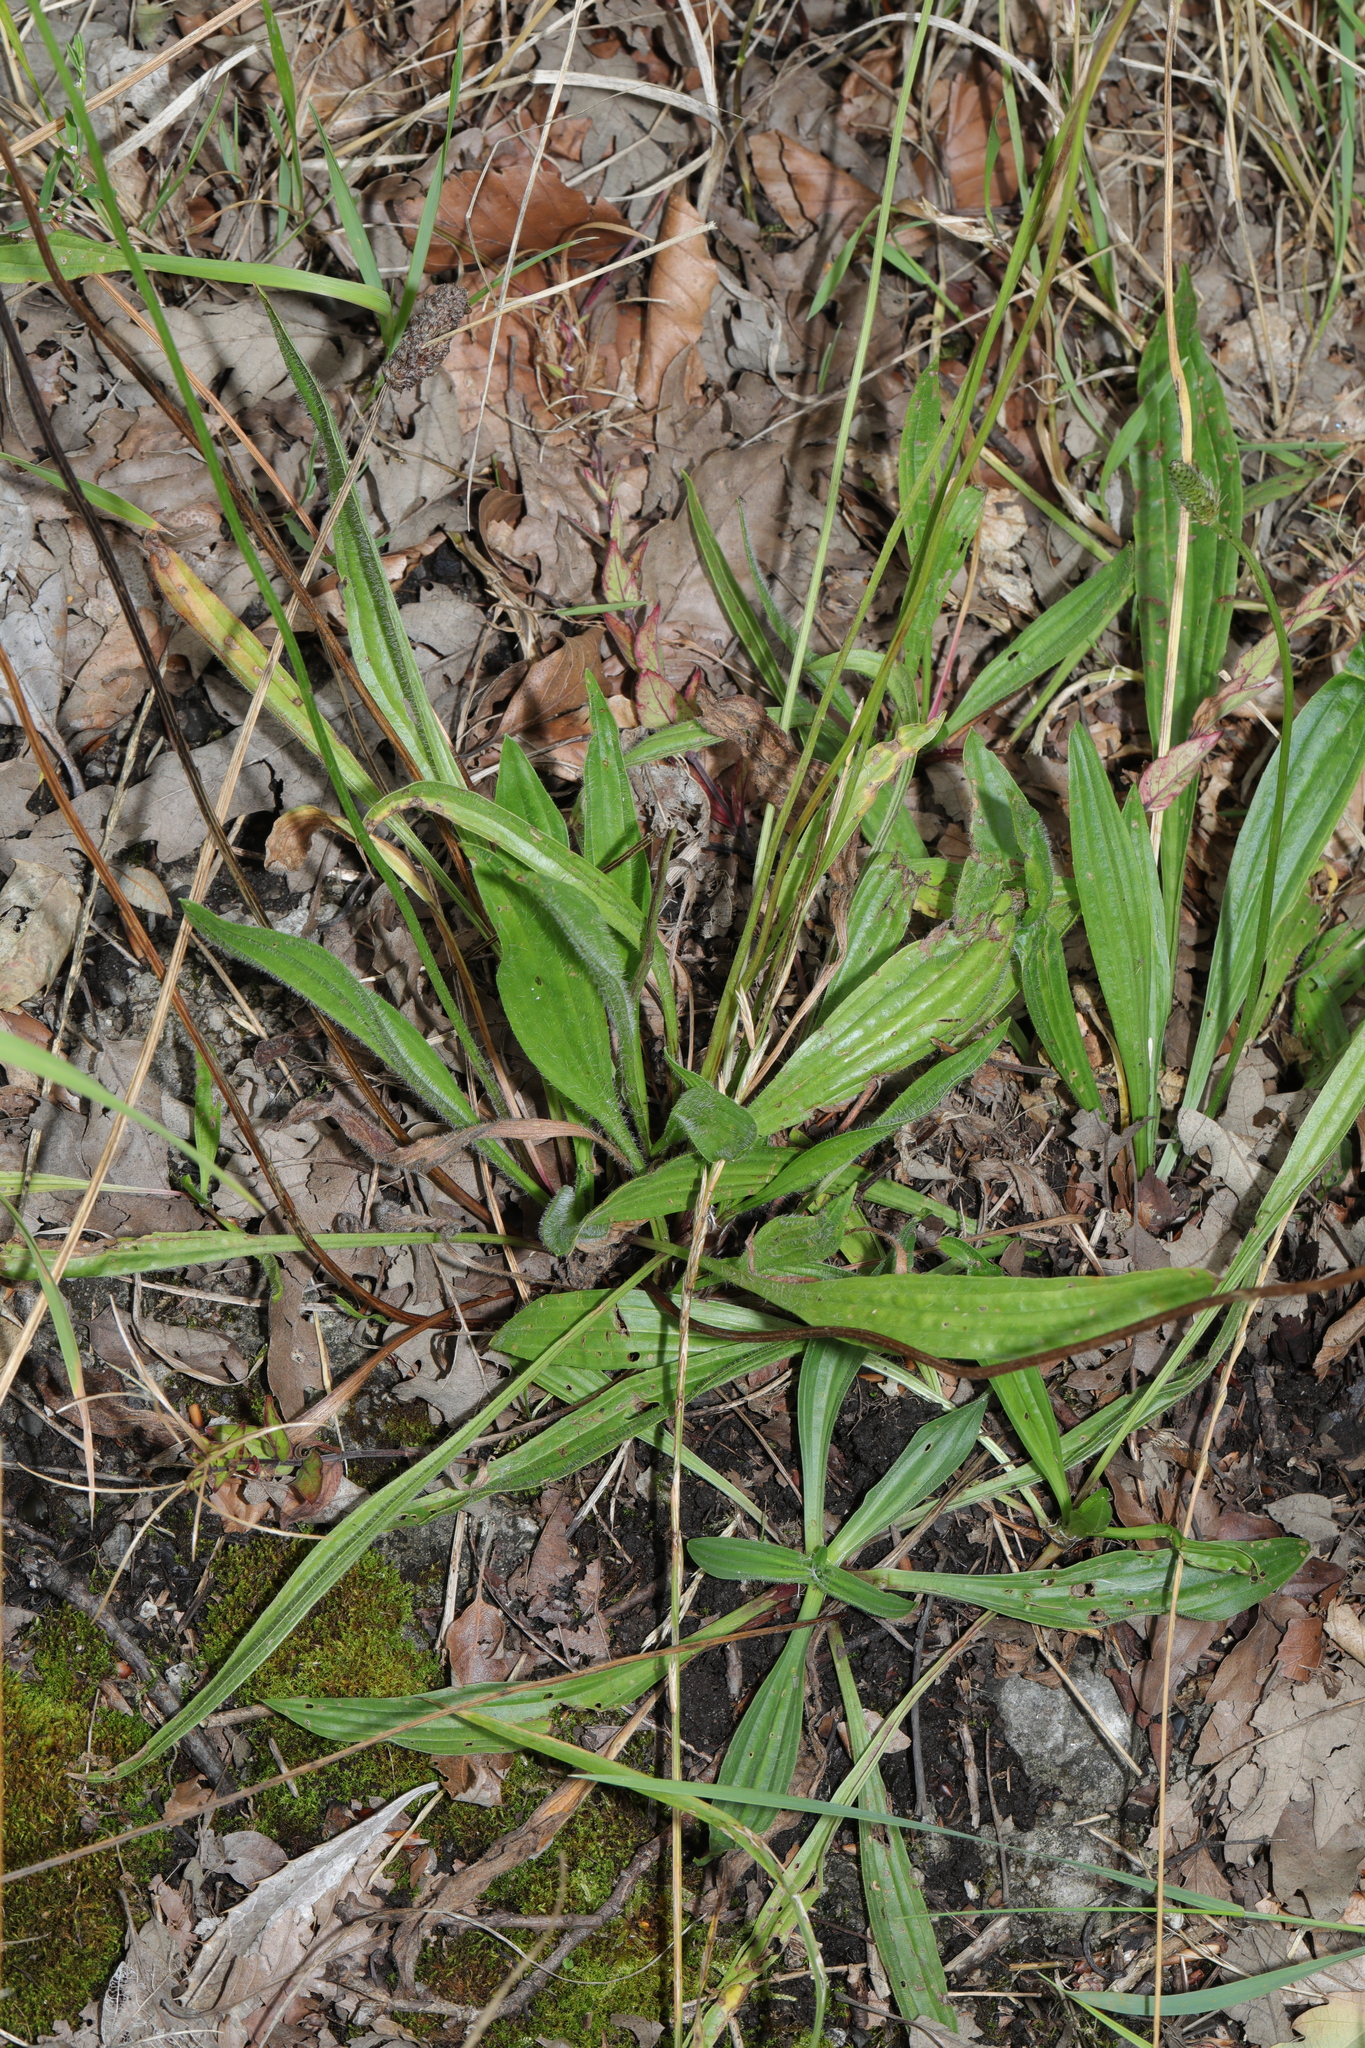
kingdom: Plantae
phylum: Tracheophyta
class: Magnoliopsida
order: Lamiales
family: Plantaginaceae
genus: Plantago
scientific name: Plantago lanceolata
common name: Ribwort plantain
